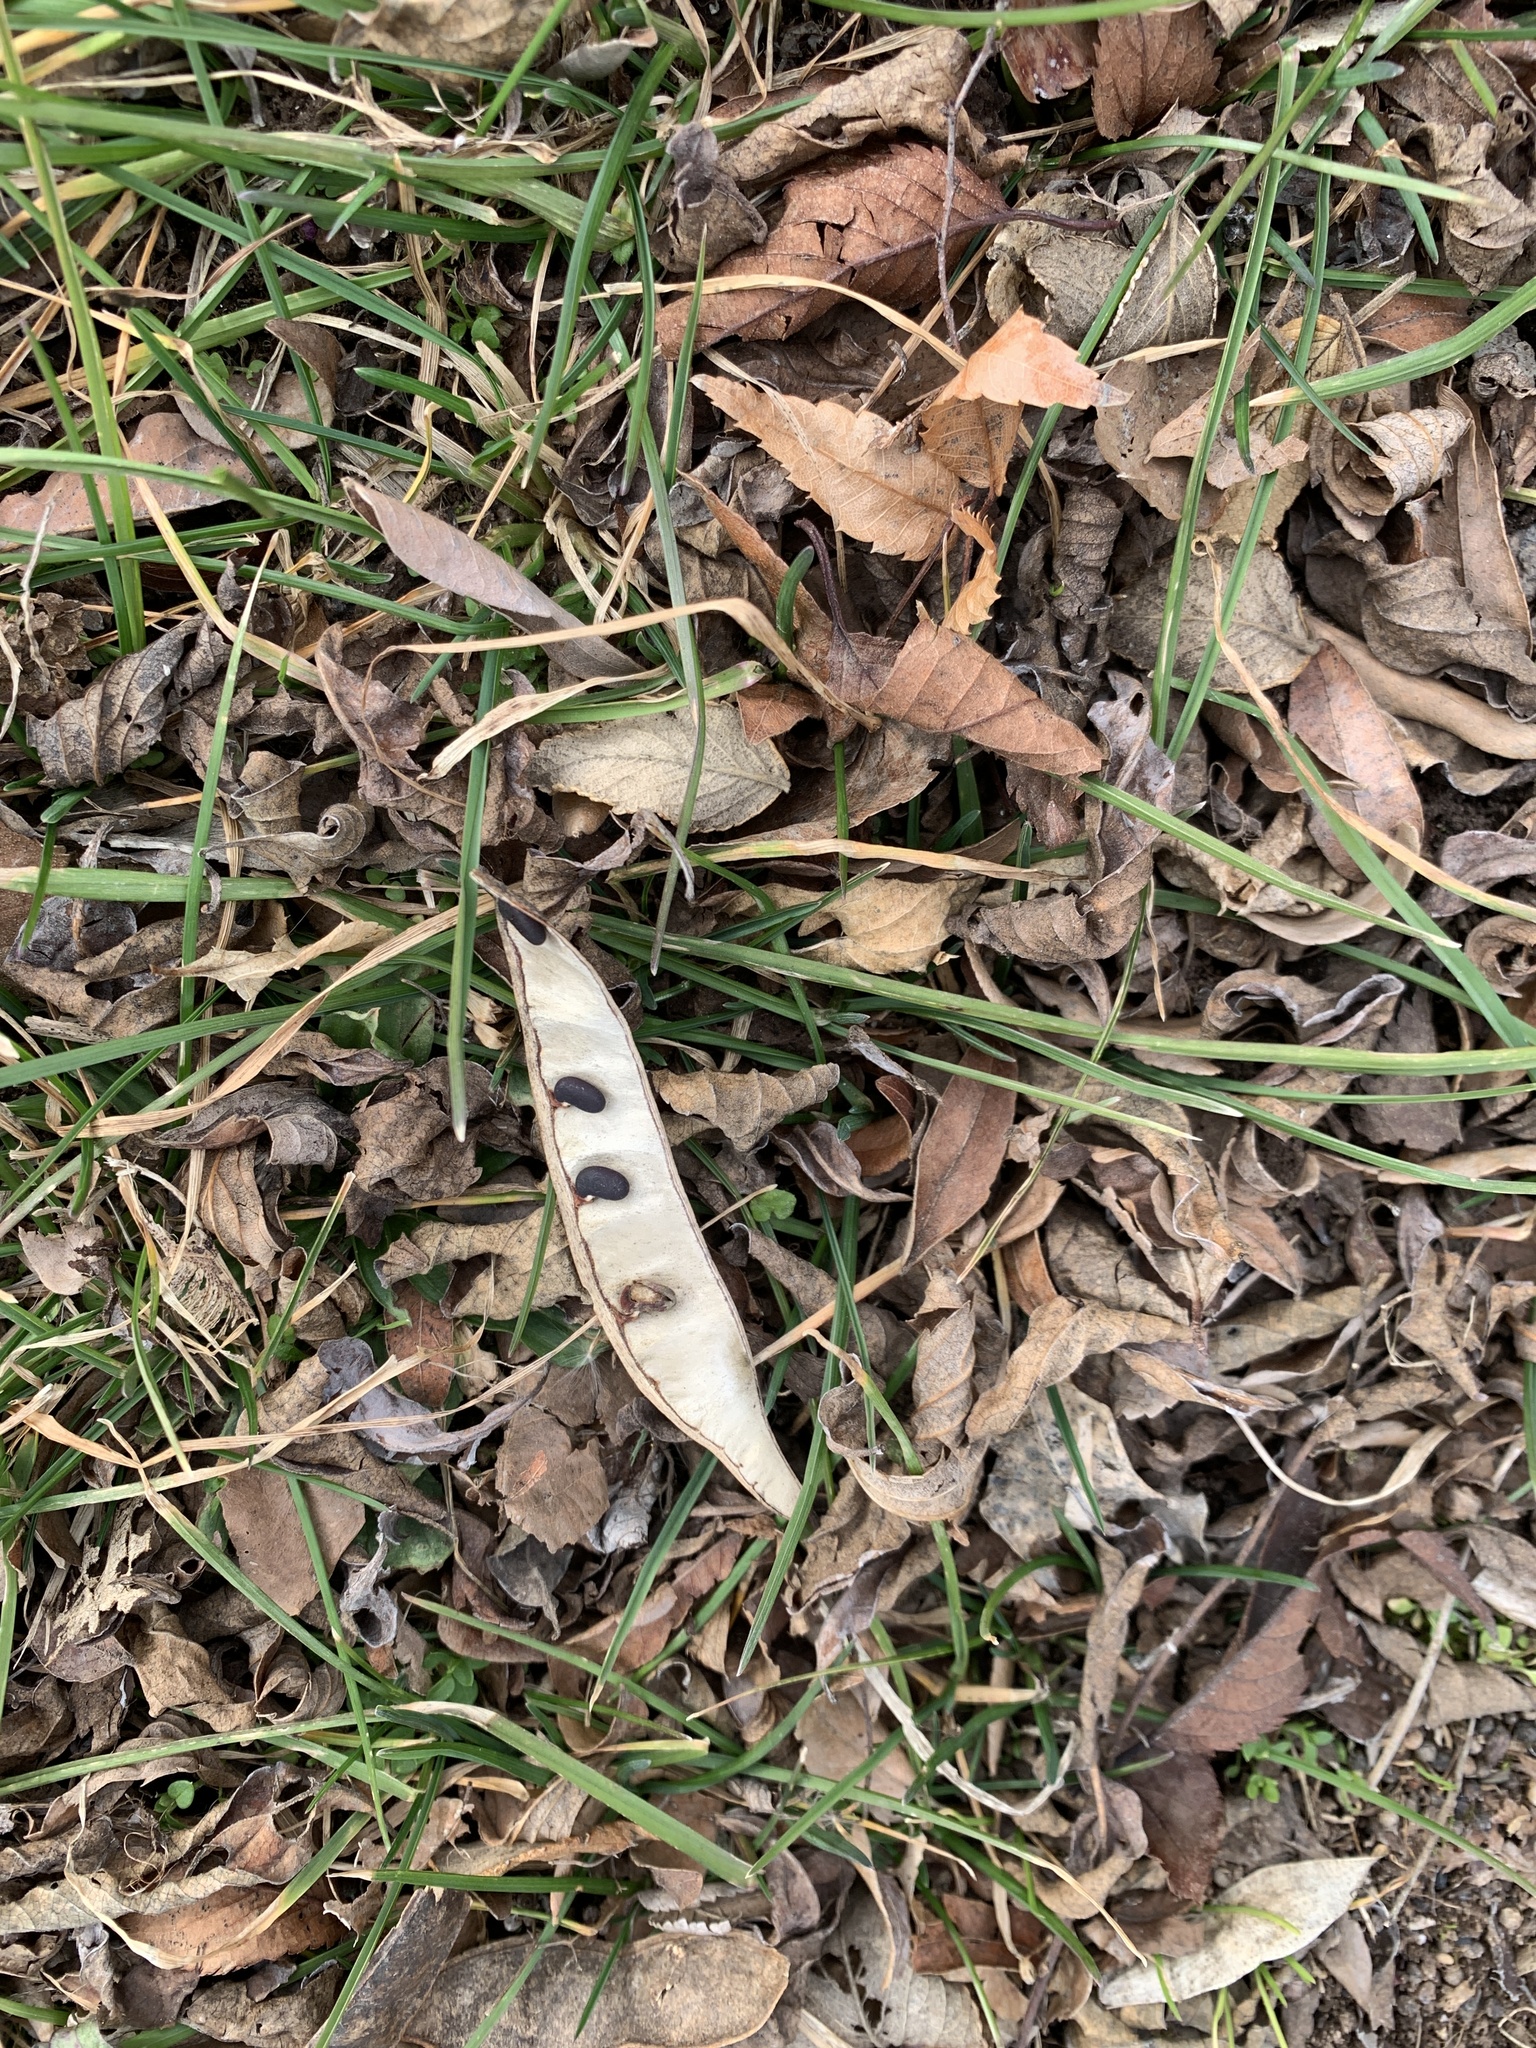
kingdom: Plantae
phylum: Tracheophyta
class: Magnoliopsida
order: Fabales
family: Fabaceae
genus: Robinia
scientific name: Robinia pseudoacacia
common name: Black locust
